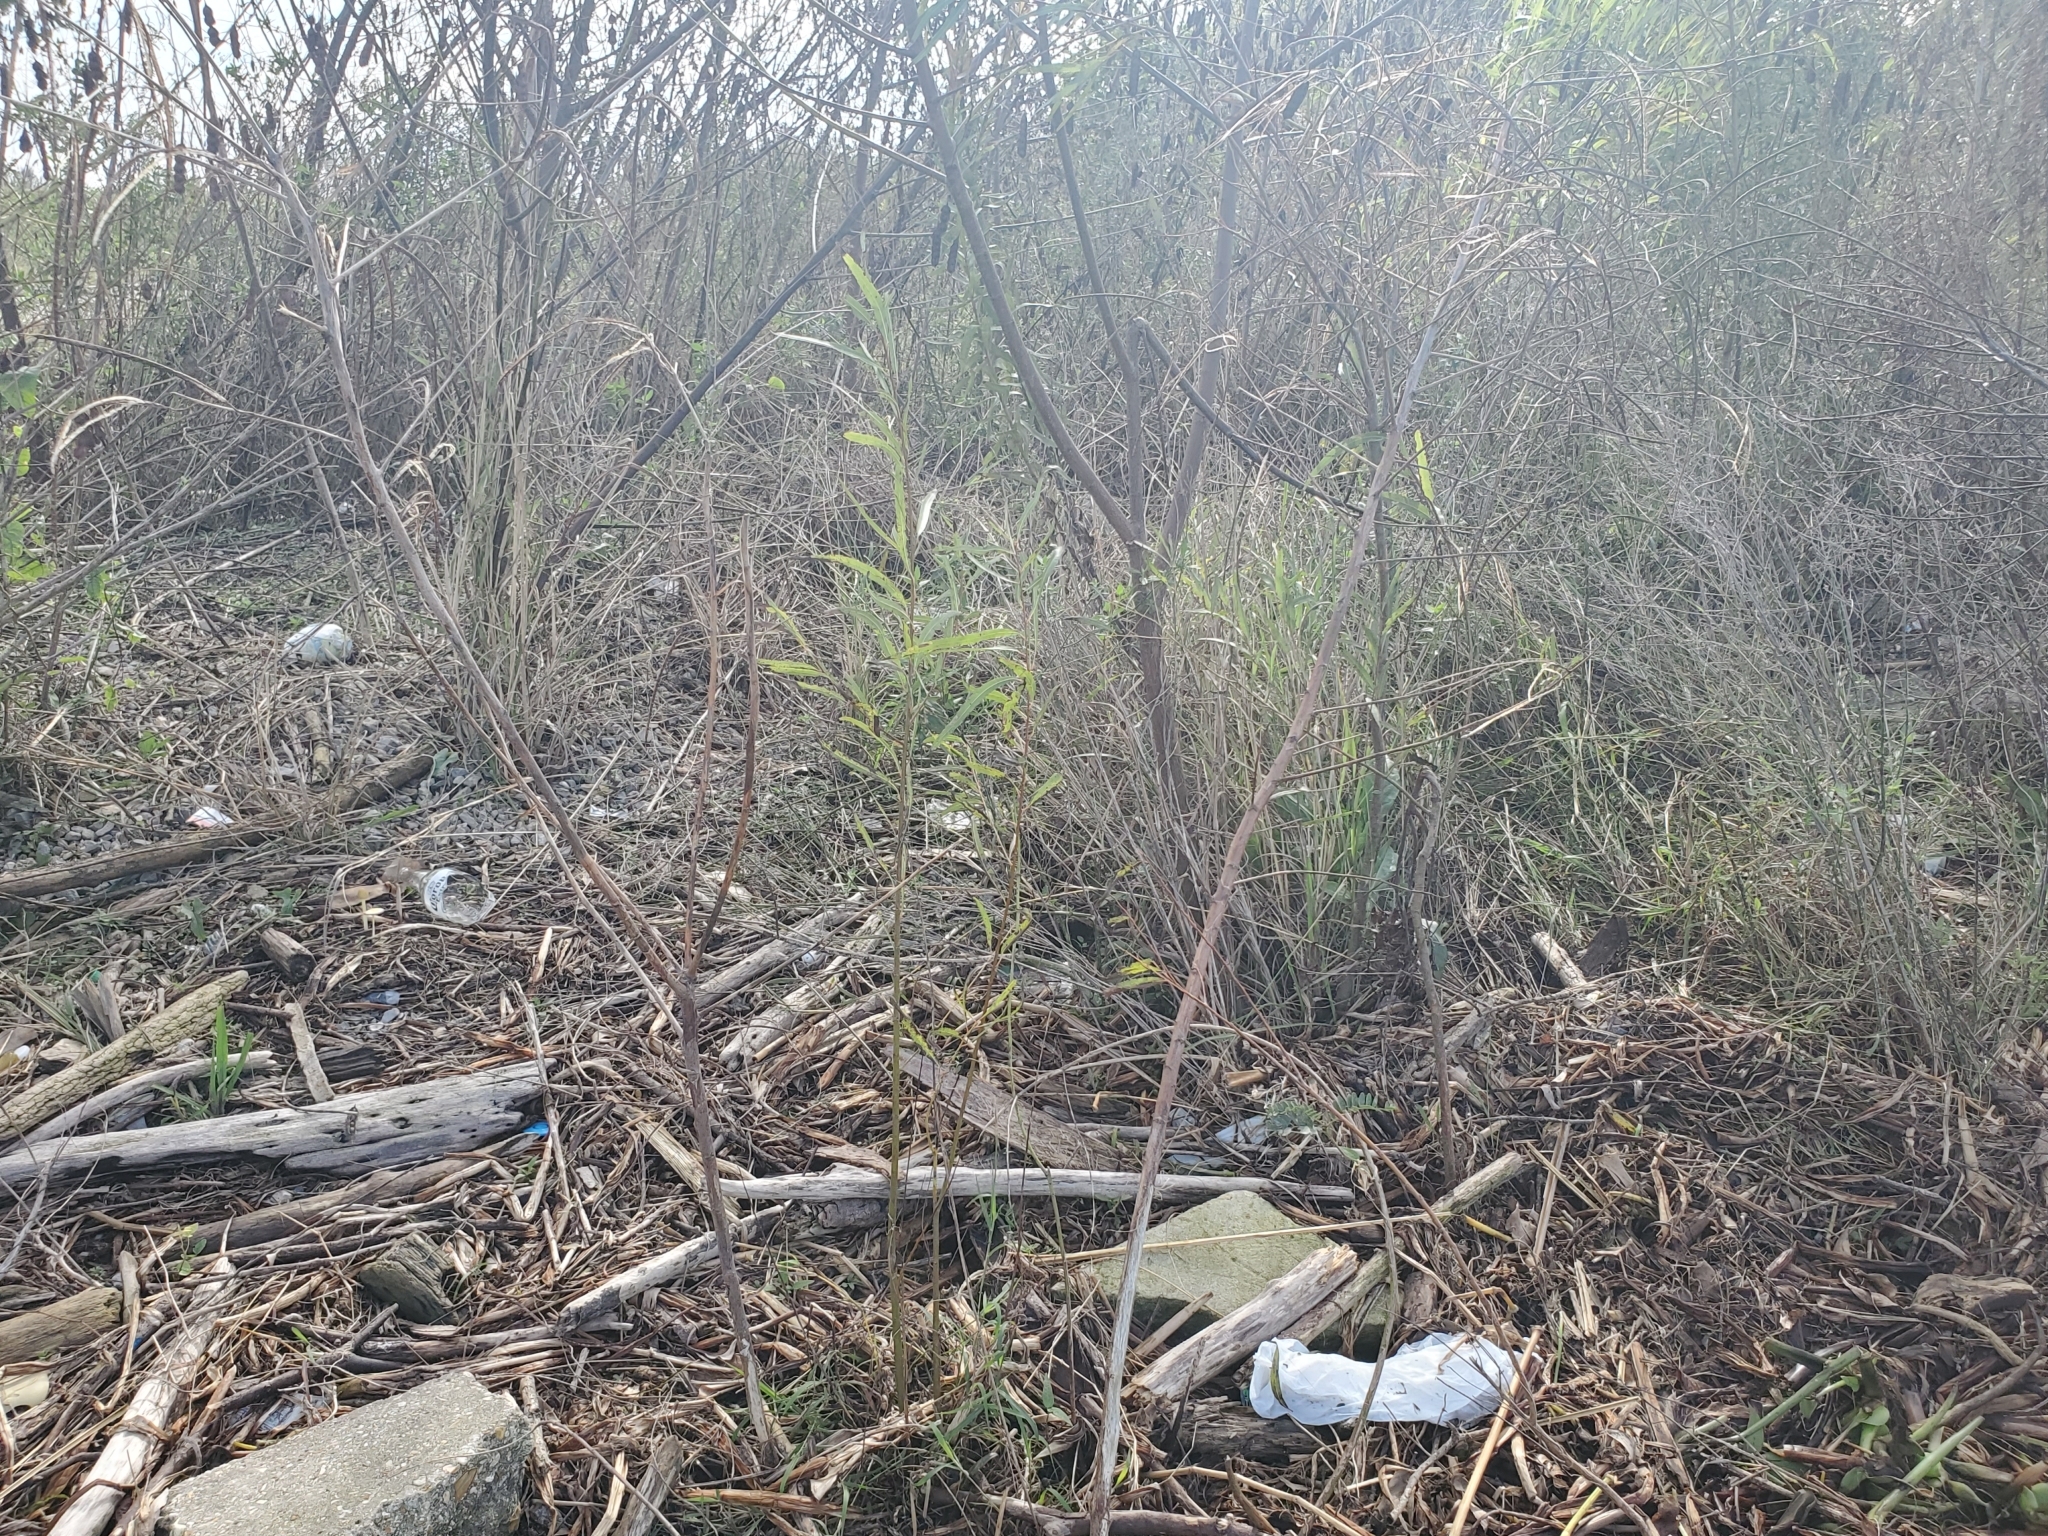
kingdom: Plantae
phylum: Tracheophyta
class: Magnoliopsida
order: Malpighiales
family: Salicaceae
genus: Salix
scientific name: Salix nigra
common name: Black willow
